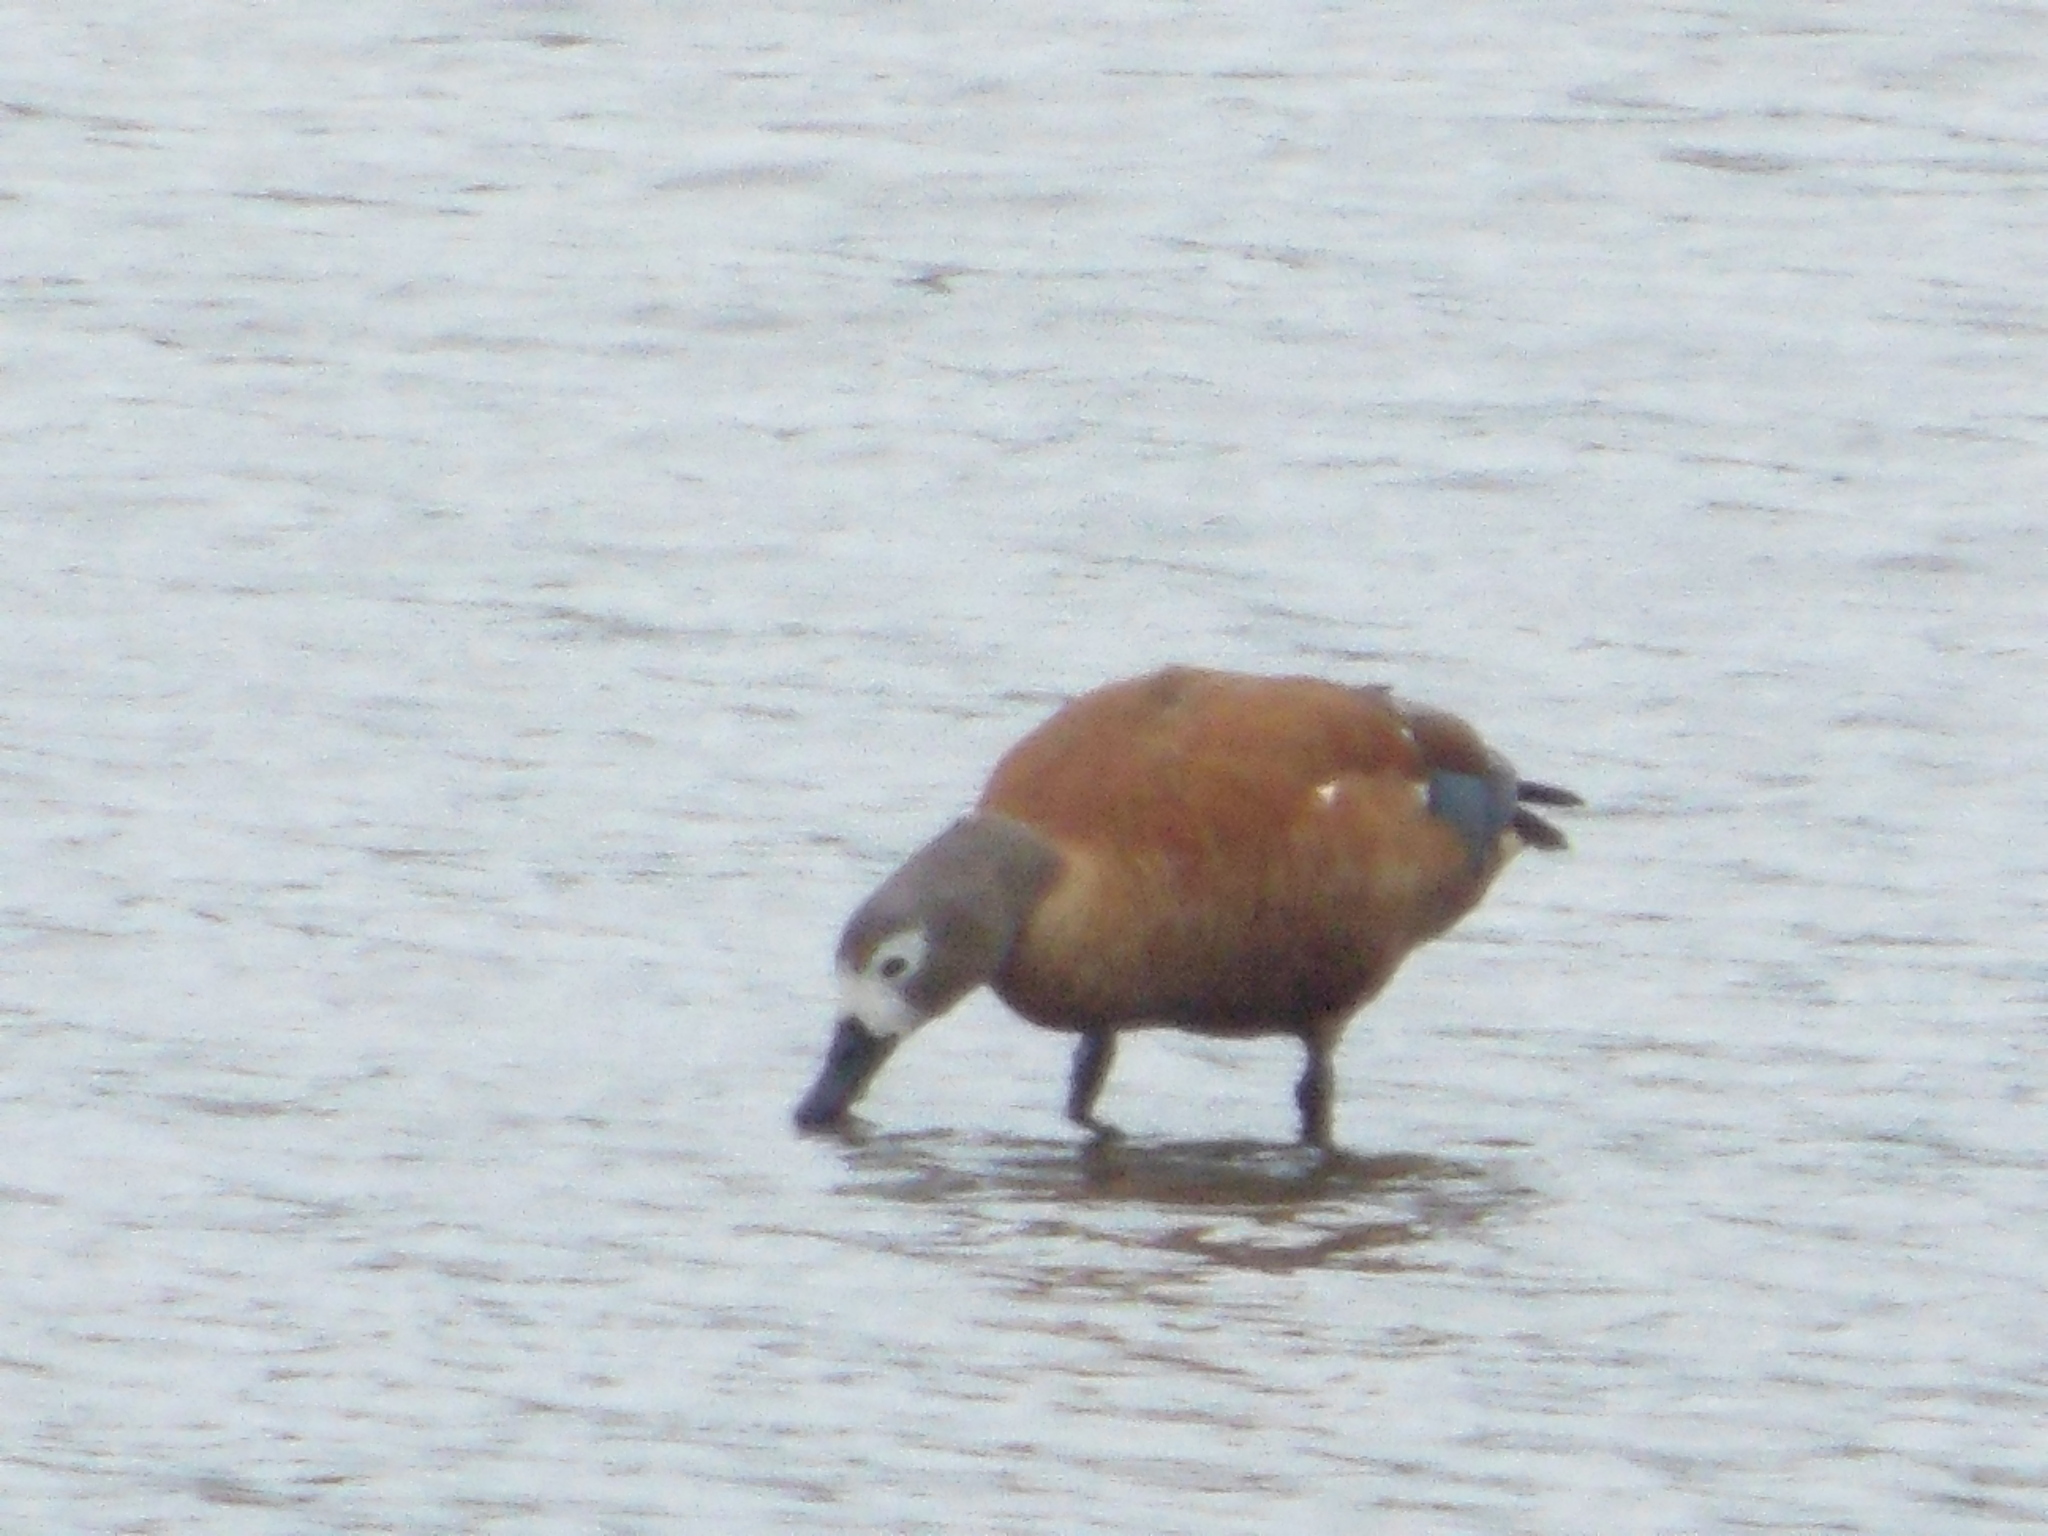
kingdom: Animalia
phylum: Chordata
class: Aves
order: Anseriformes
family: Anatidae
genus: Tadorna
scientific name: Tadorna cana
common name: South african shelduck
